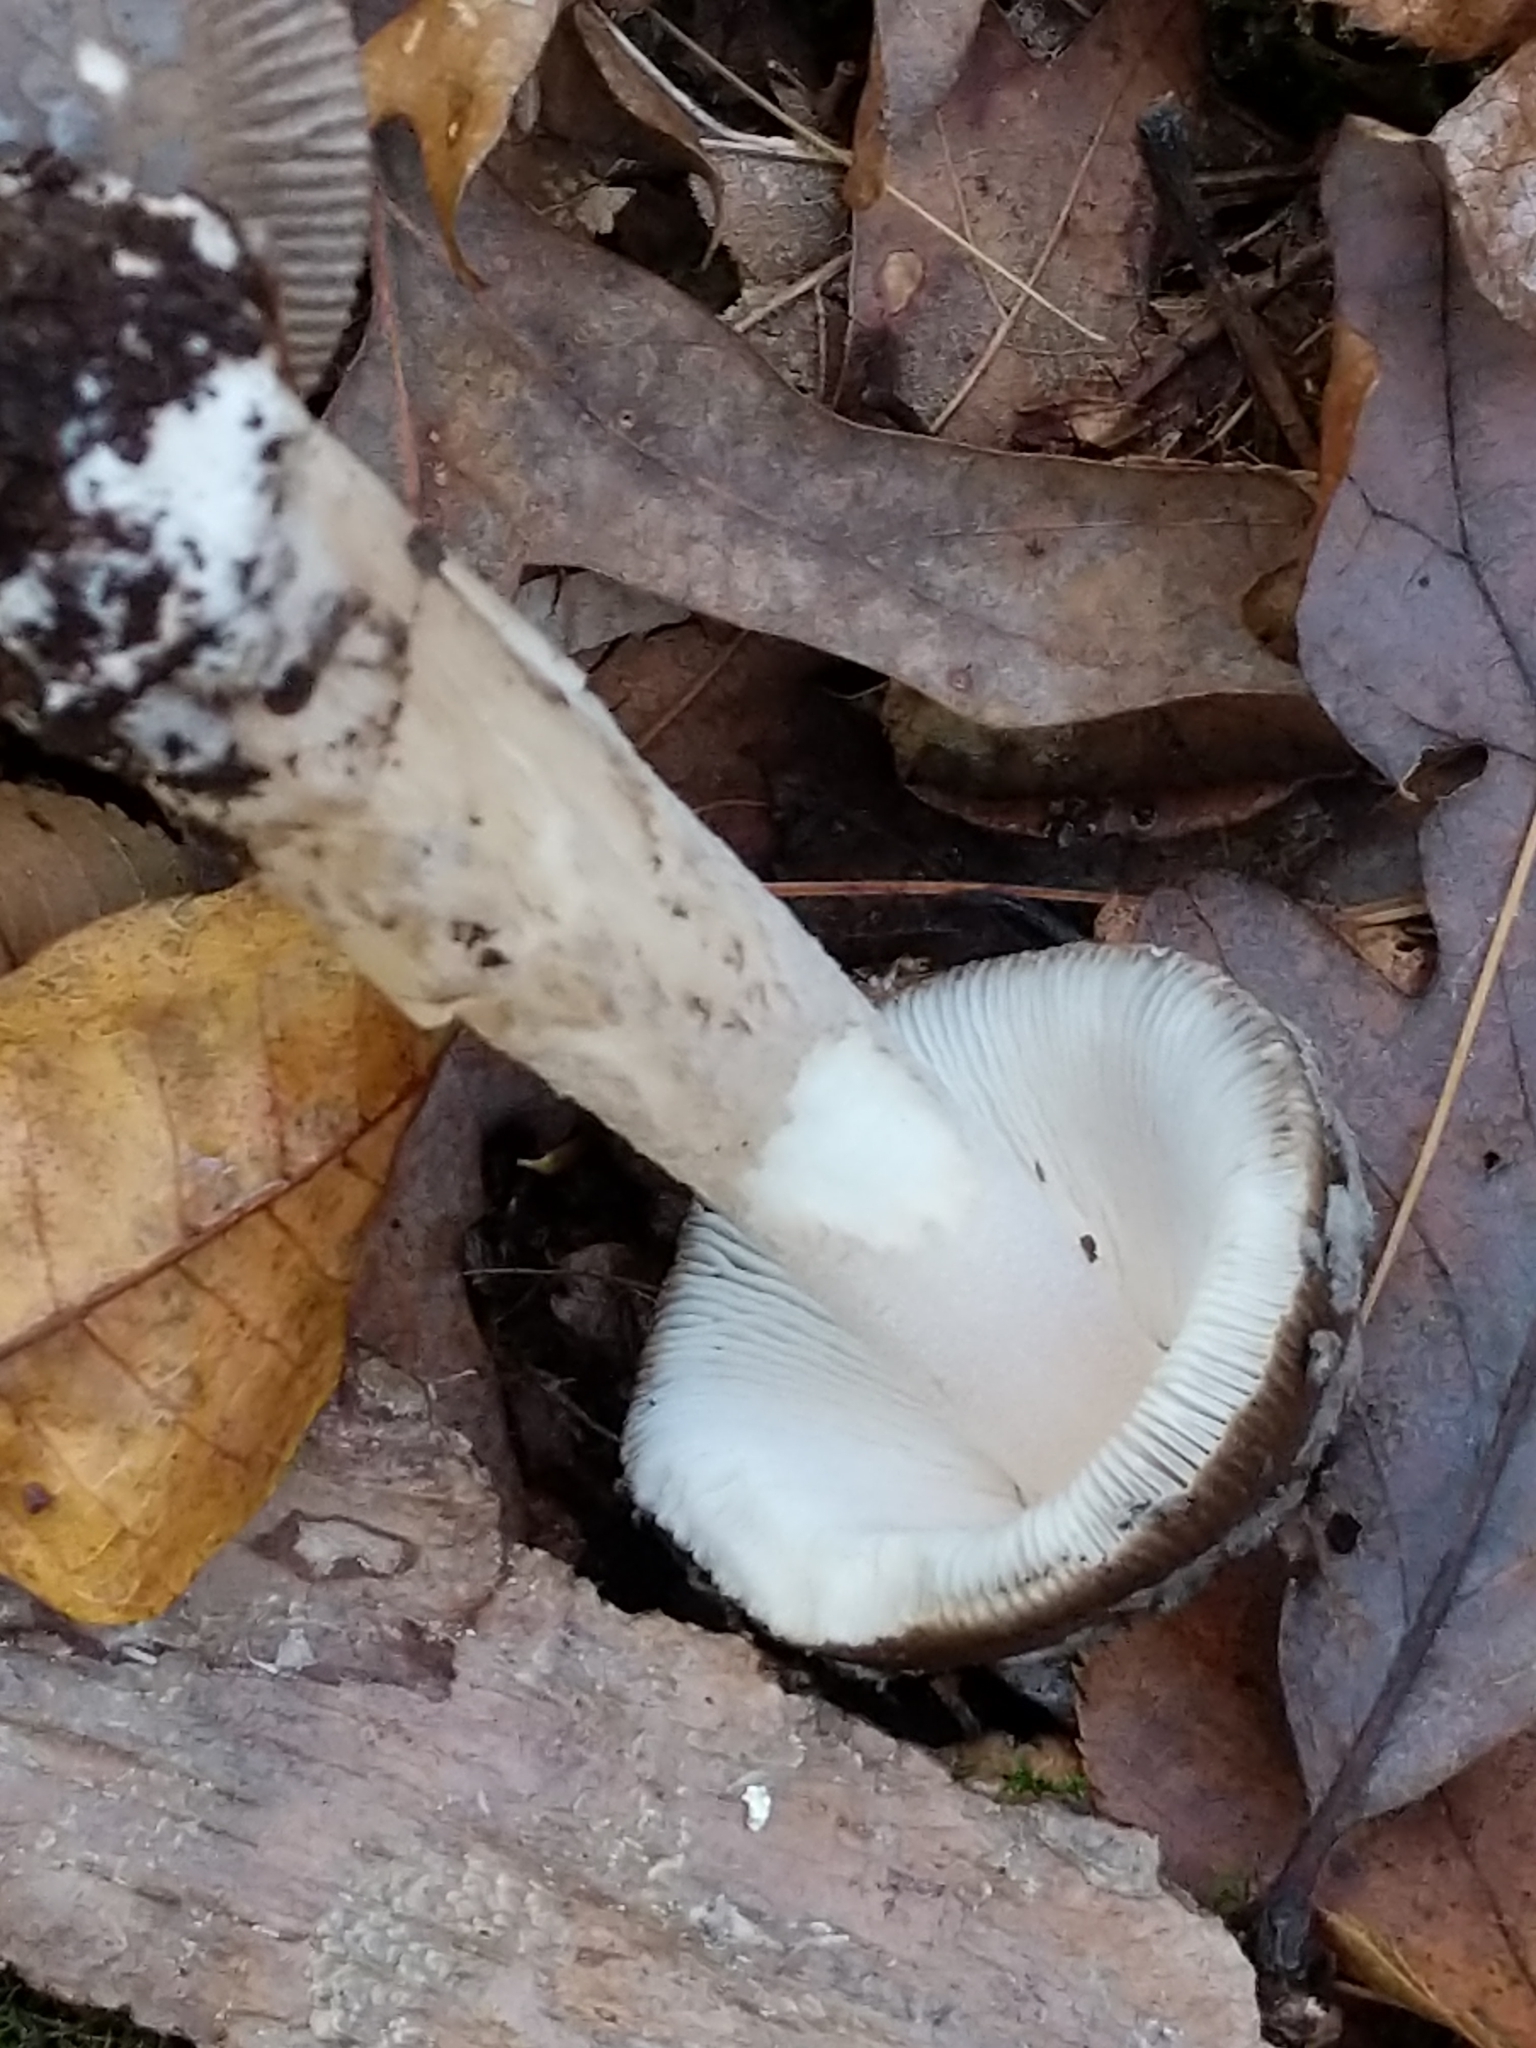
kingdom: Fungi
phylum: Basidiomycota
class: Agaricomycetes
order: Agaricales
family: Amanitaceae
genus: Amanita
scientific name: Amanita rhacopus
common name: Shaggy legged ringless amanita
